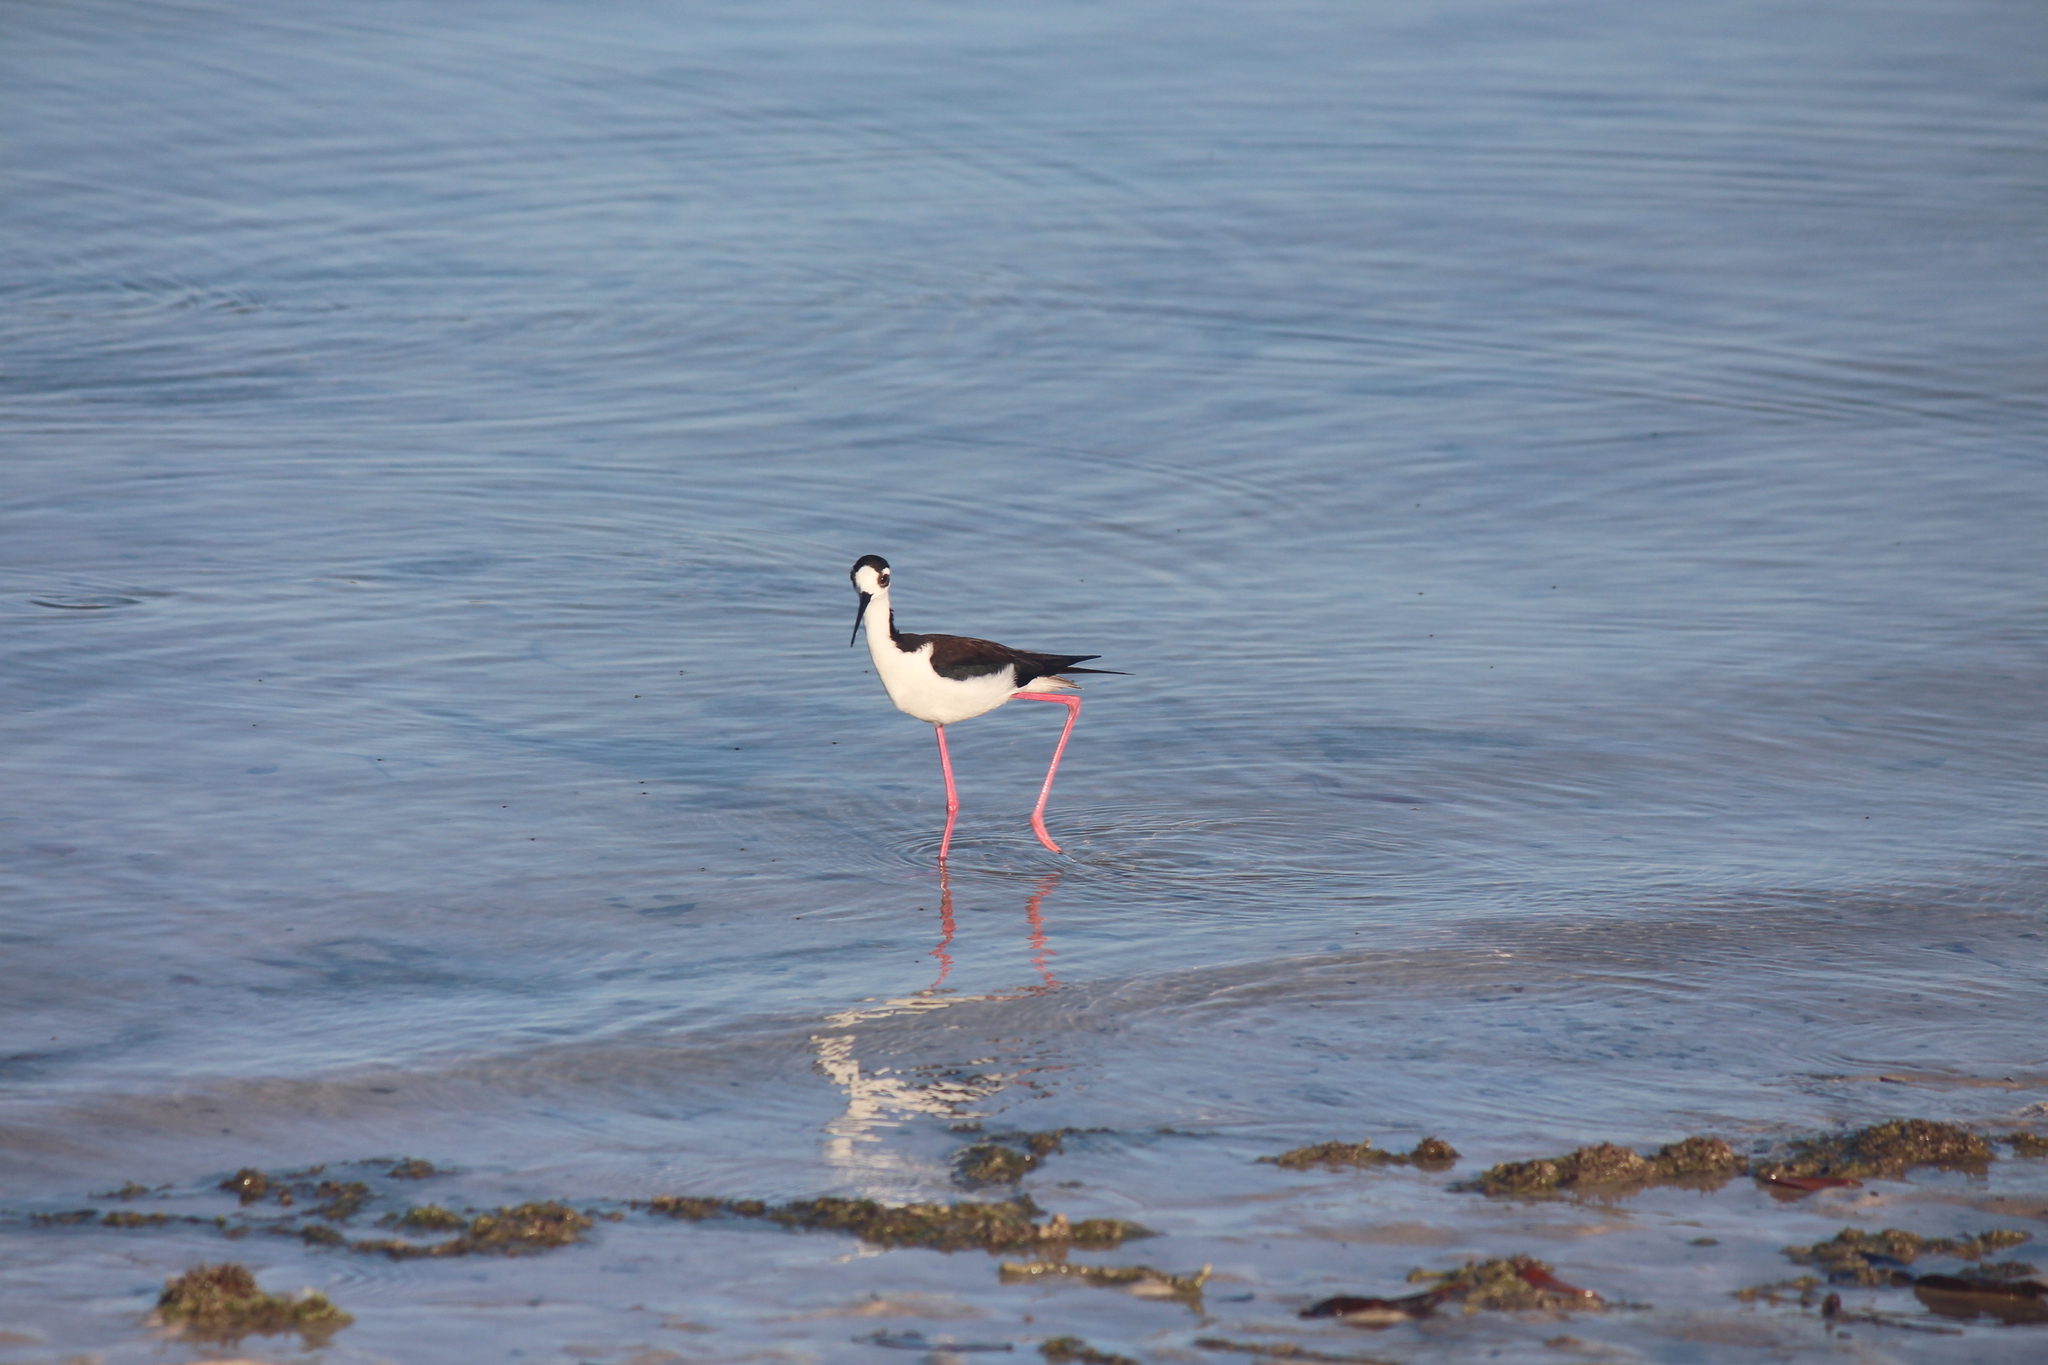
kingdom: Animalia
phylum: Chordata
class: Aves
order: Charadriiformes
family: Recurvirostridae
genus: Himantopus
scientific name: Himantopus mexicanus
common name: Black-necked stilt
